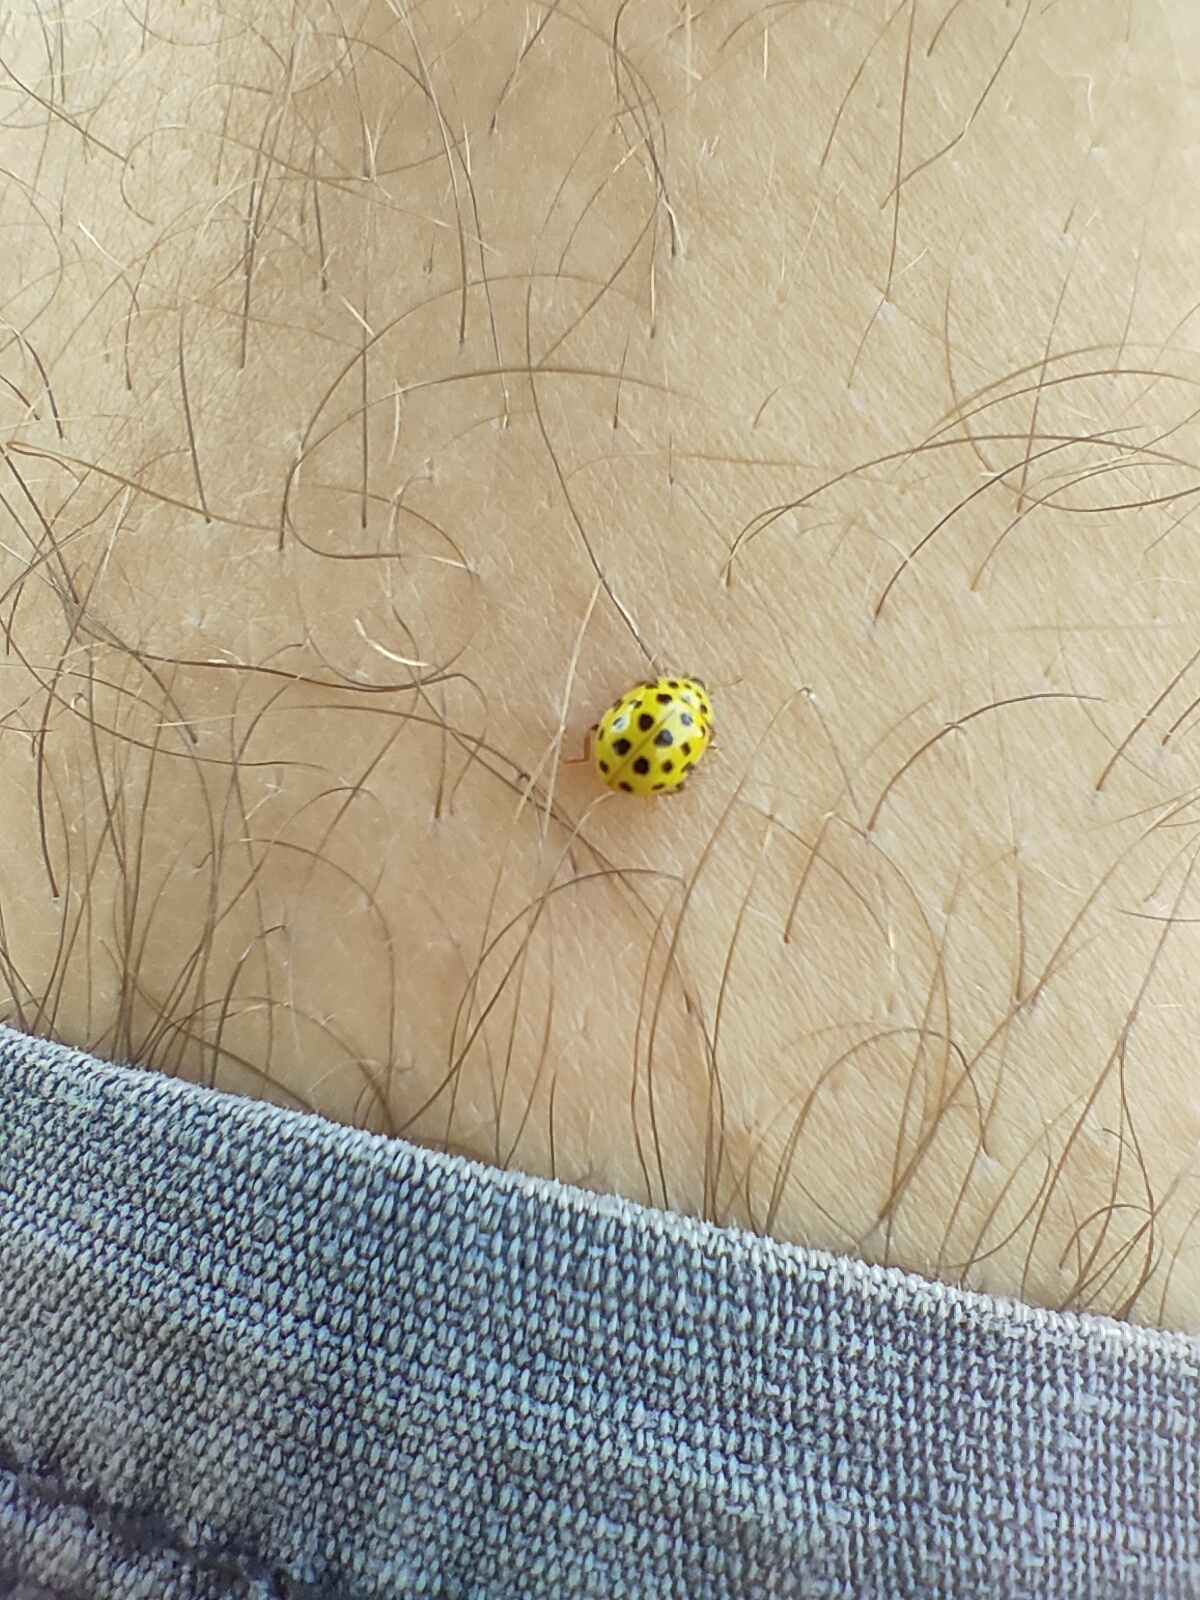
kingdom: Animalia
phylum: Arthropoda
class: Insecta
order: Coleoptera
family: Coccinellidae
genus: Psyllobora
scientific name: Psyllobora vigintiduopunctata
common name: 22-spot ladybird
